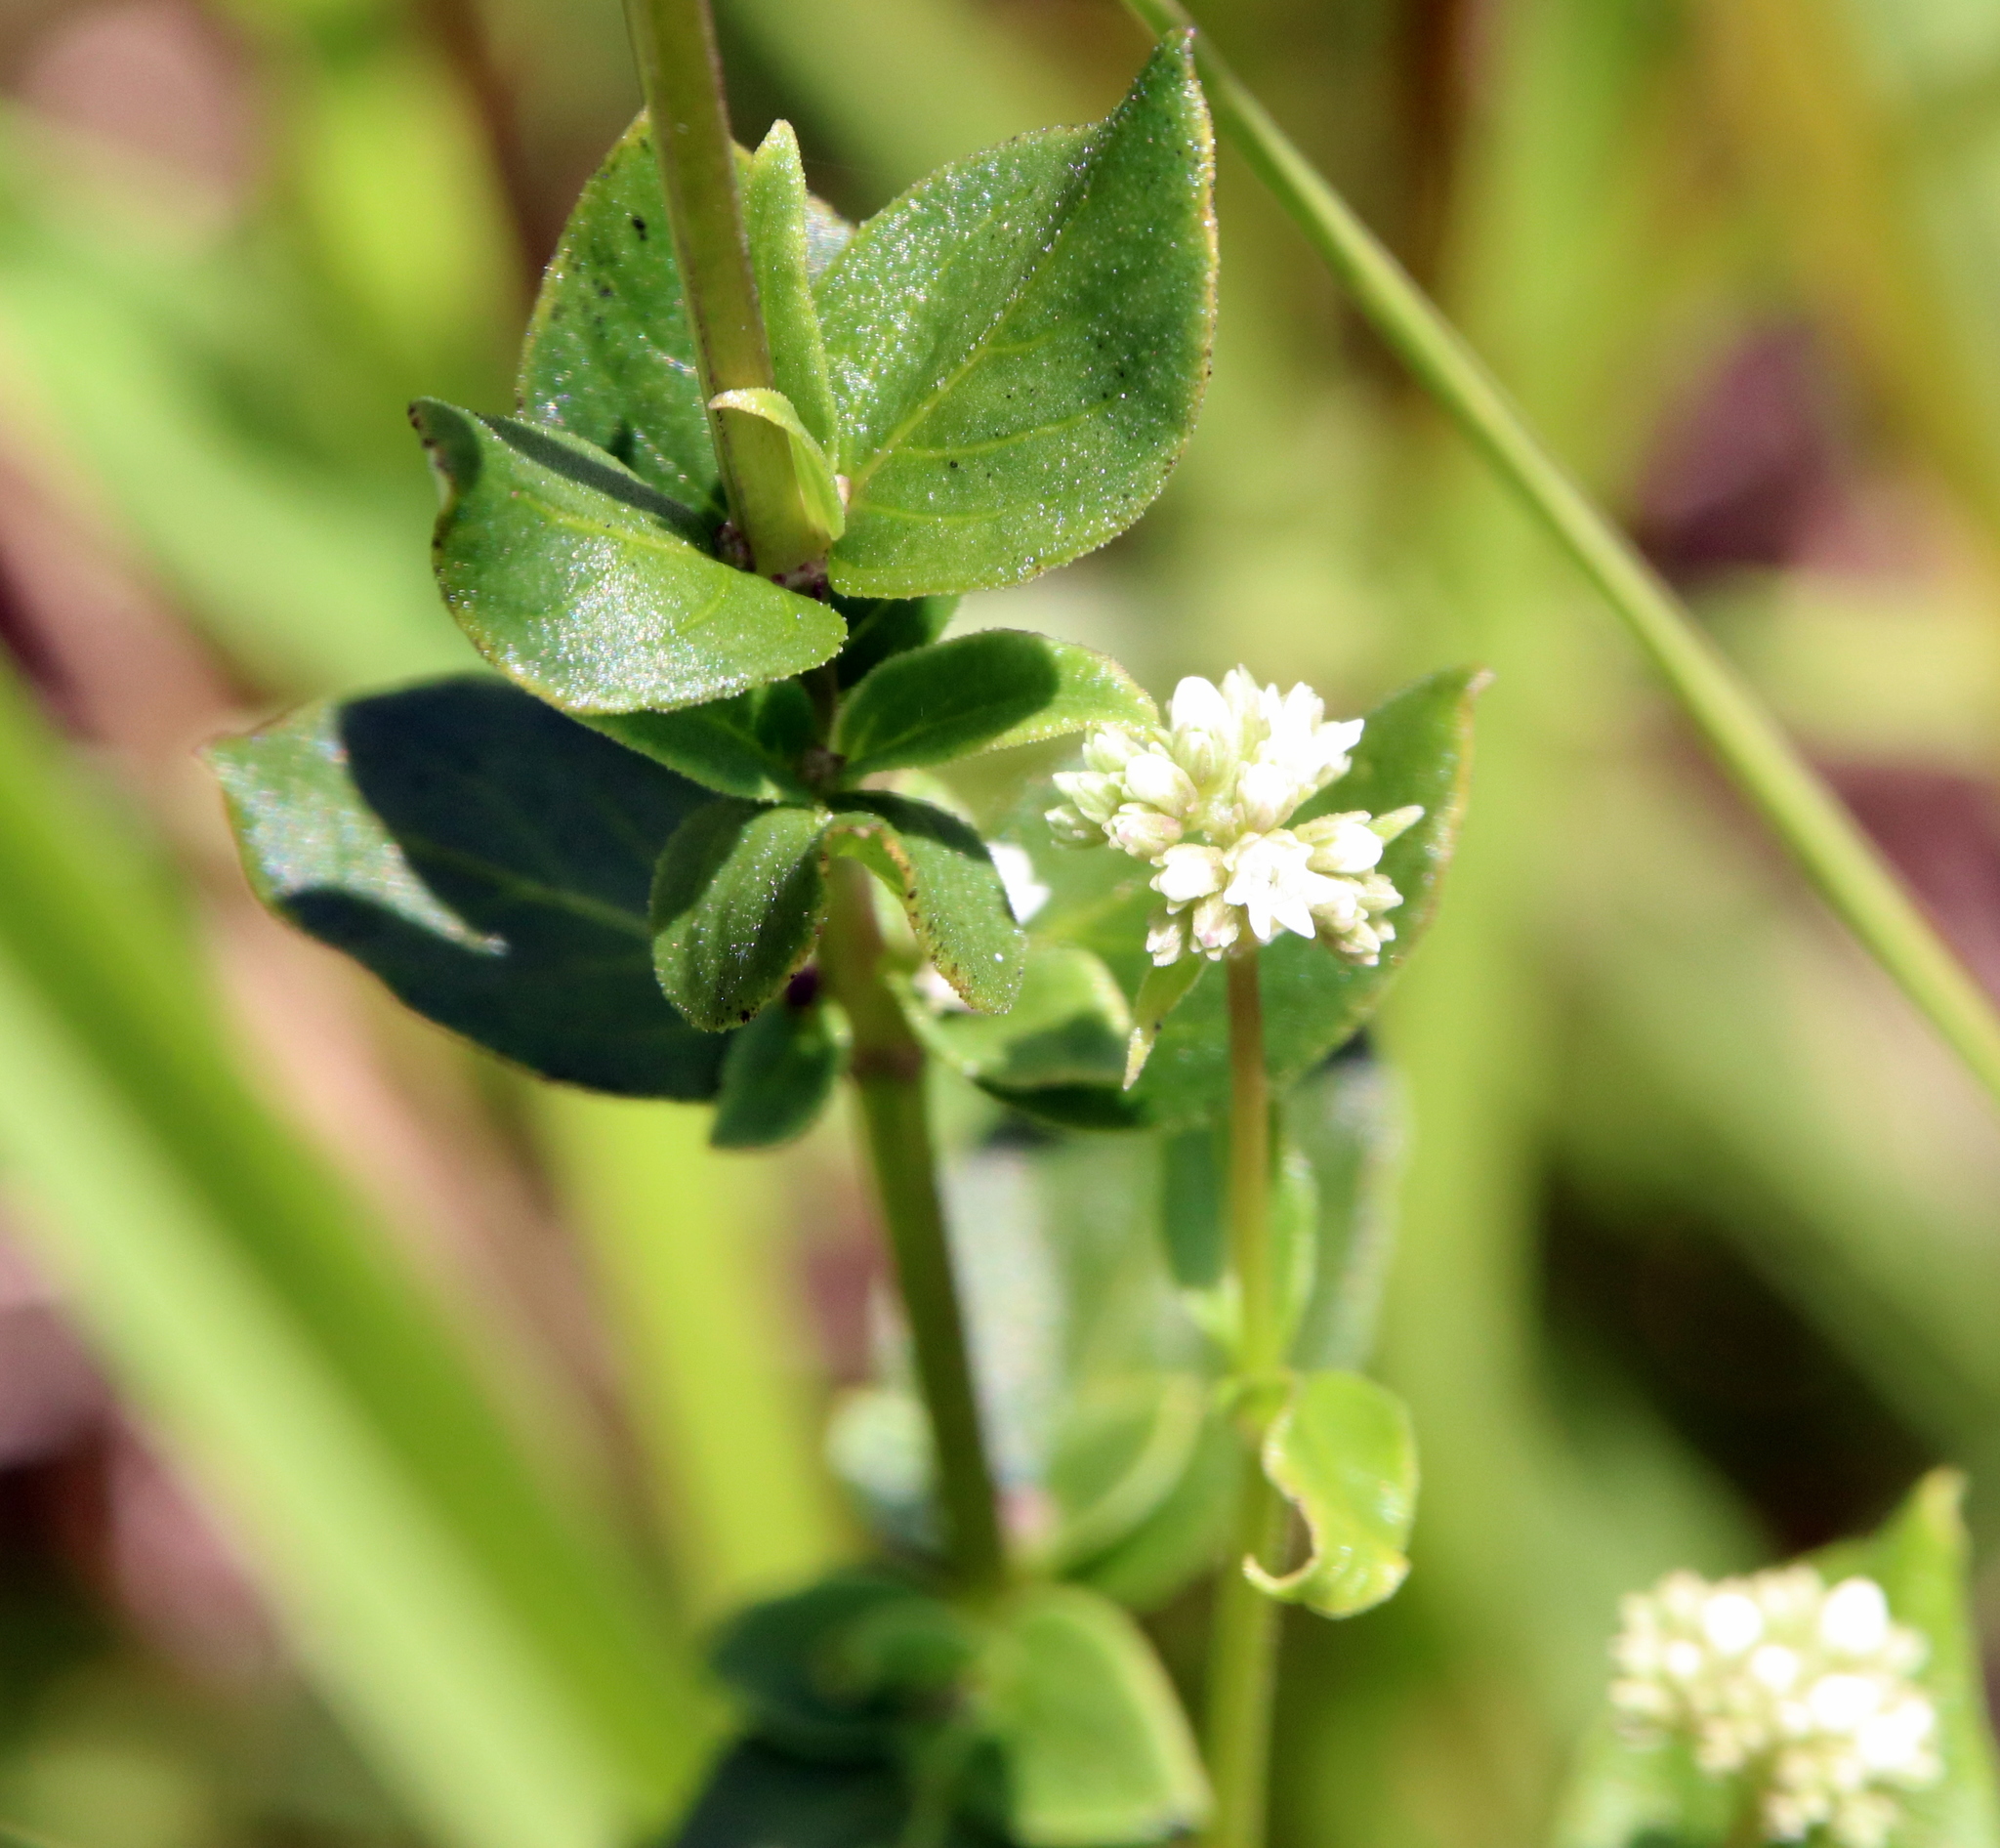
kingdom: Plantae
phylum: Tracheophyta
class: Magnoliopsida
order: Gentianales
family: Loganiaceae
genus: Mitreola
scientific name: Mitreola sessilifolia
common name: Swamp hornpod
